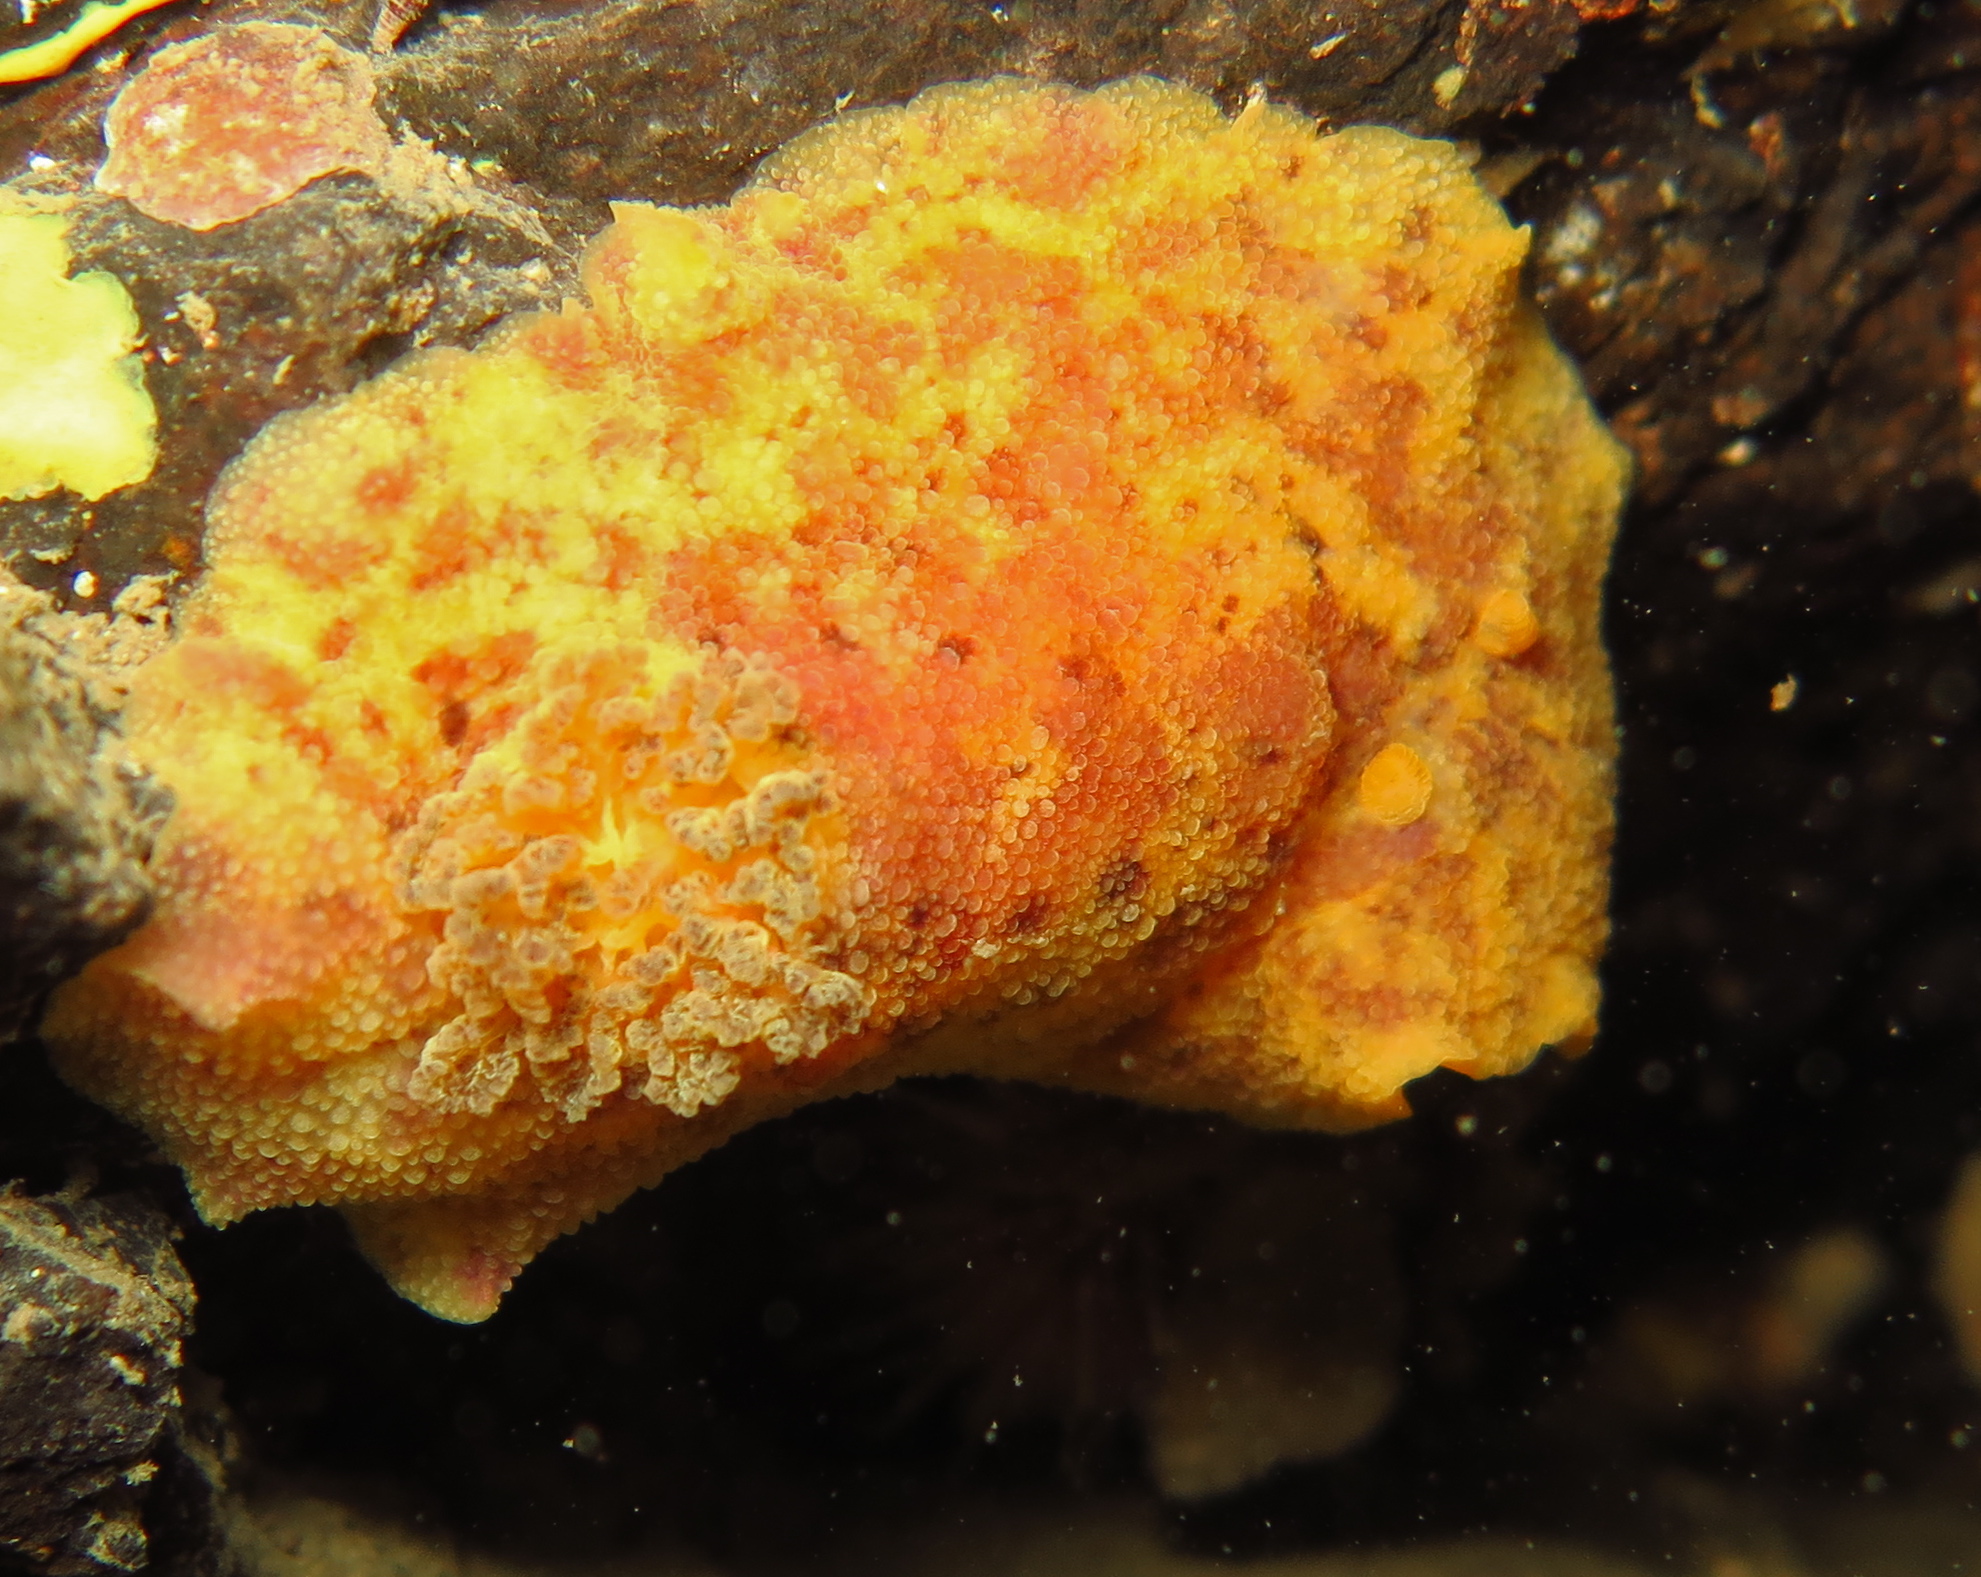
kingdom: Animalia
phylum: Mollusca
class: Gastropoda
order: Nudibranchia
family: Dorididae
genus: Doris
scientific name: Doris pseudoargus
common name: Sea lemon
